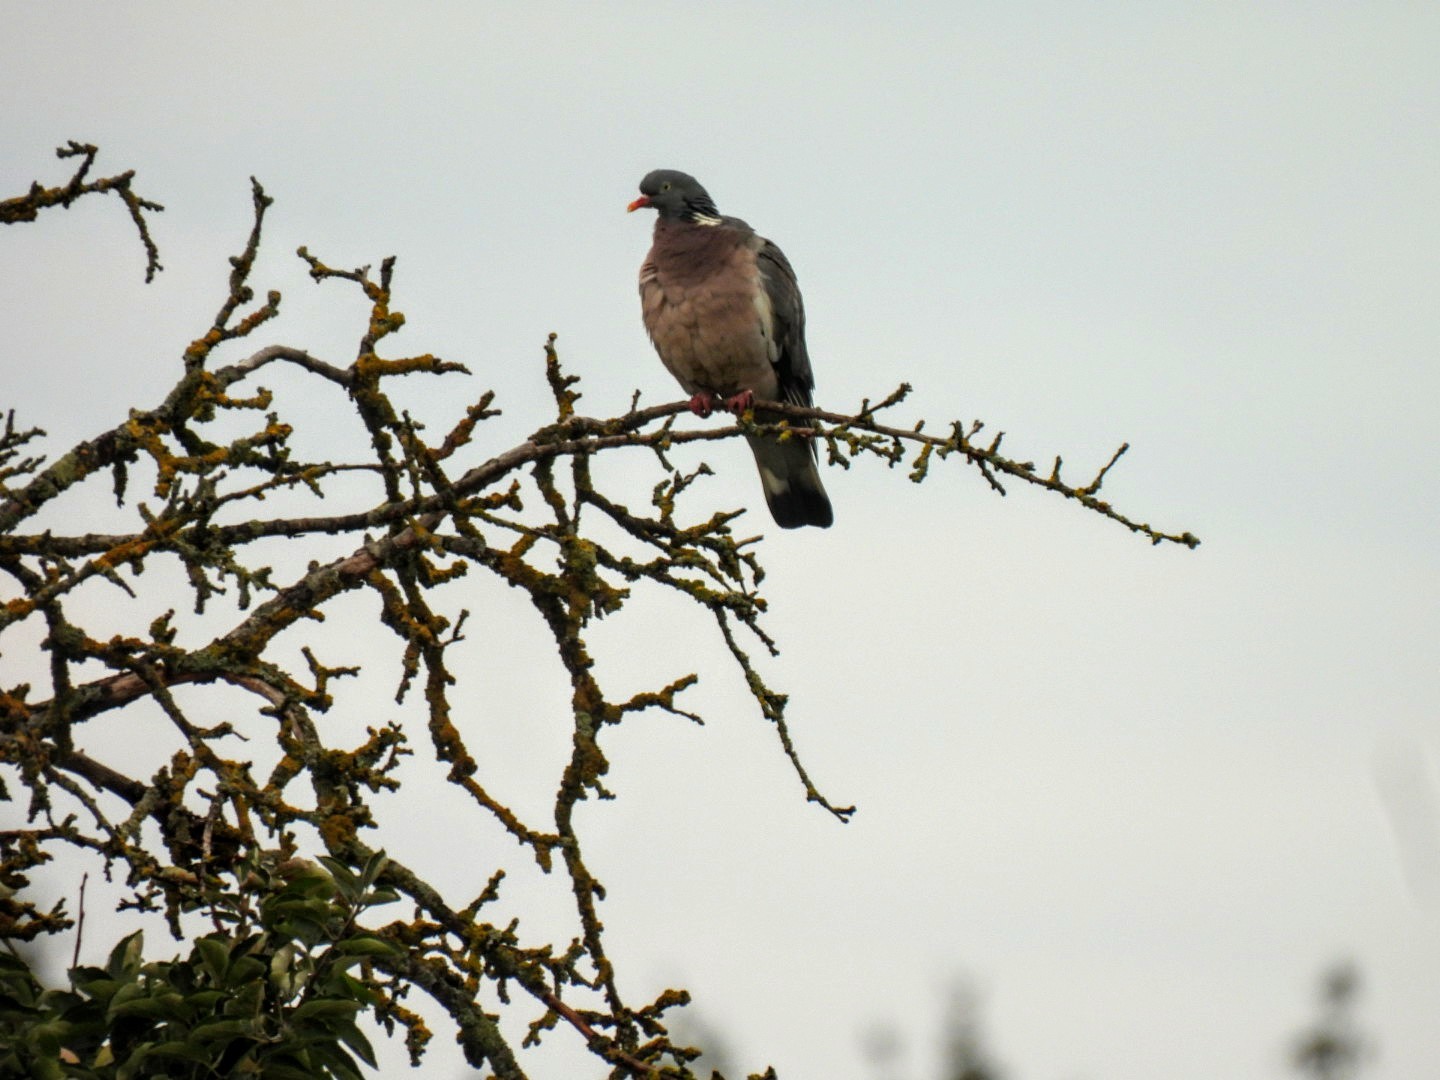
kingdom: Animalia
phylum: Chordata
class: Aves
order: Columbiformes
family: Columbidae
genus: Columba
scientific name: Columba palumbus
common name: Common wood pigeon
